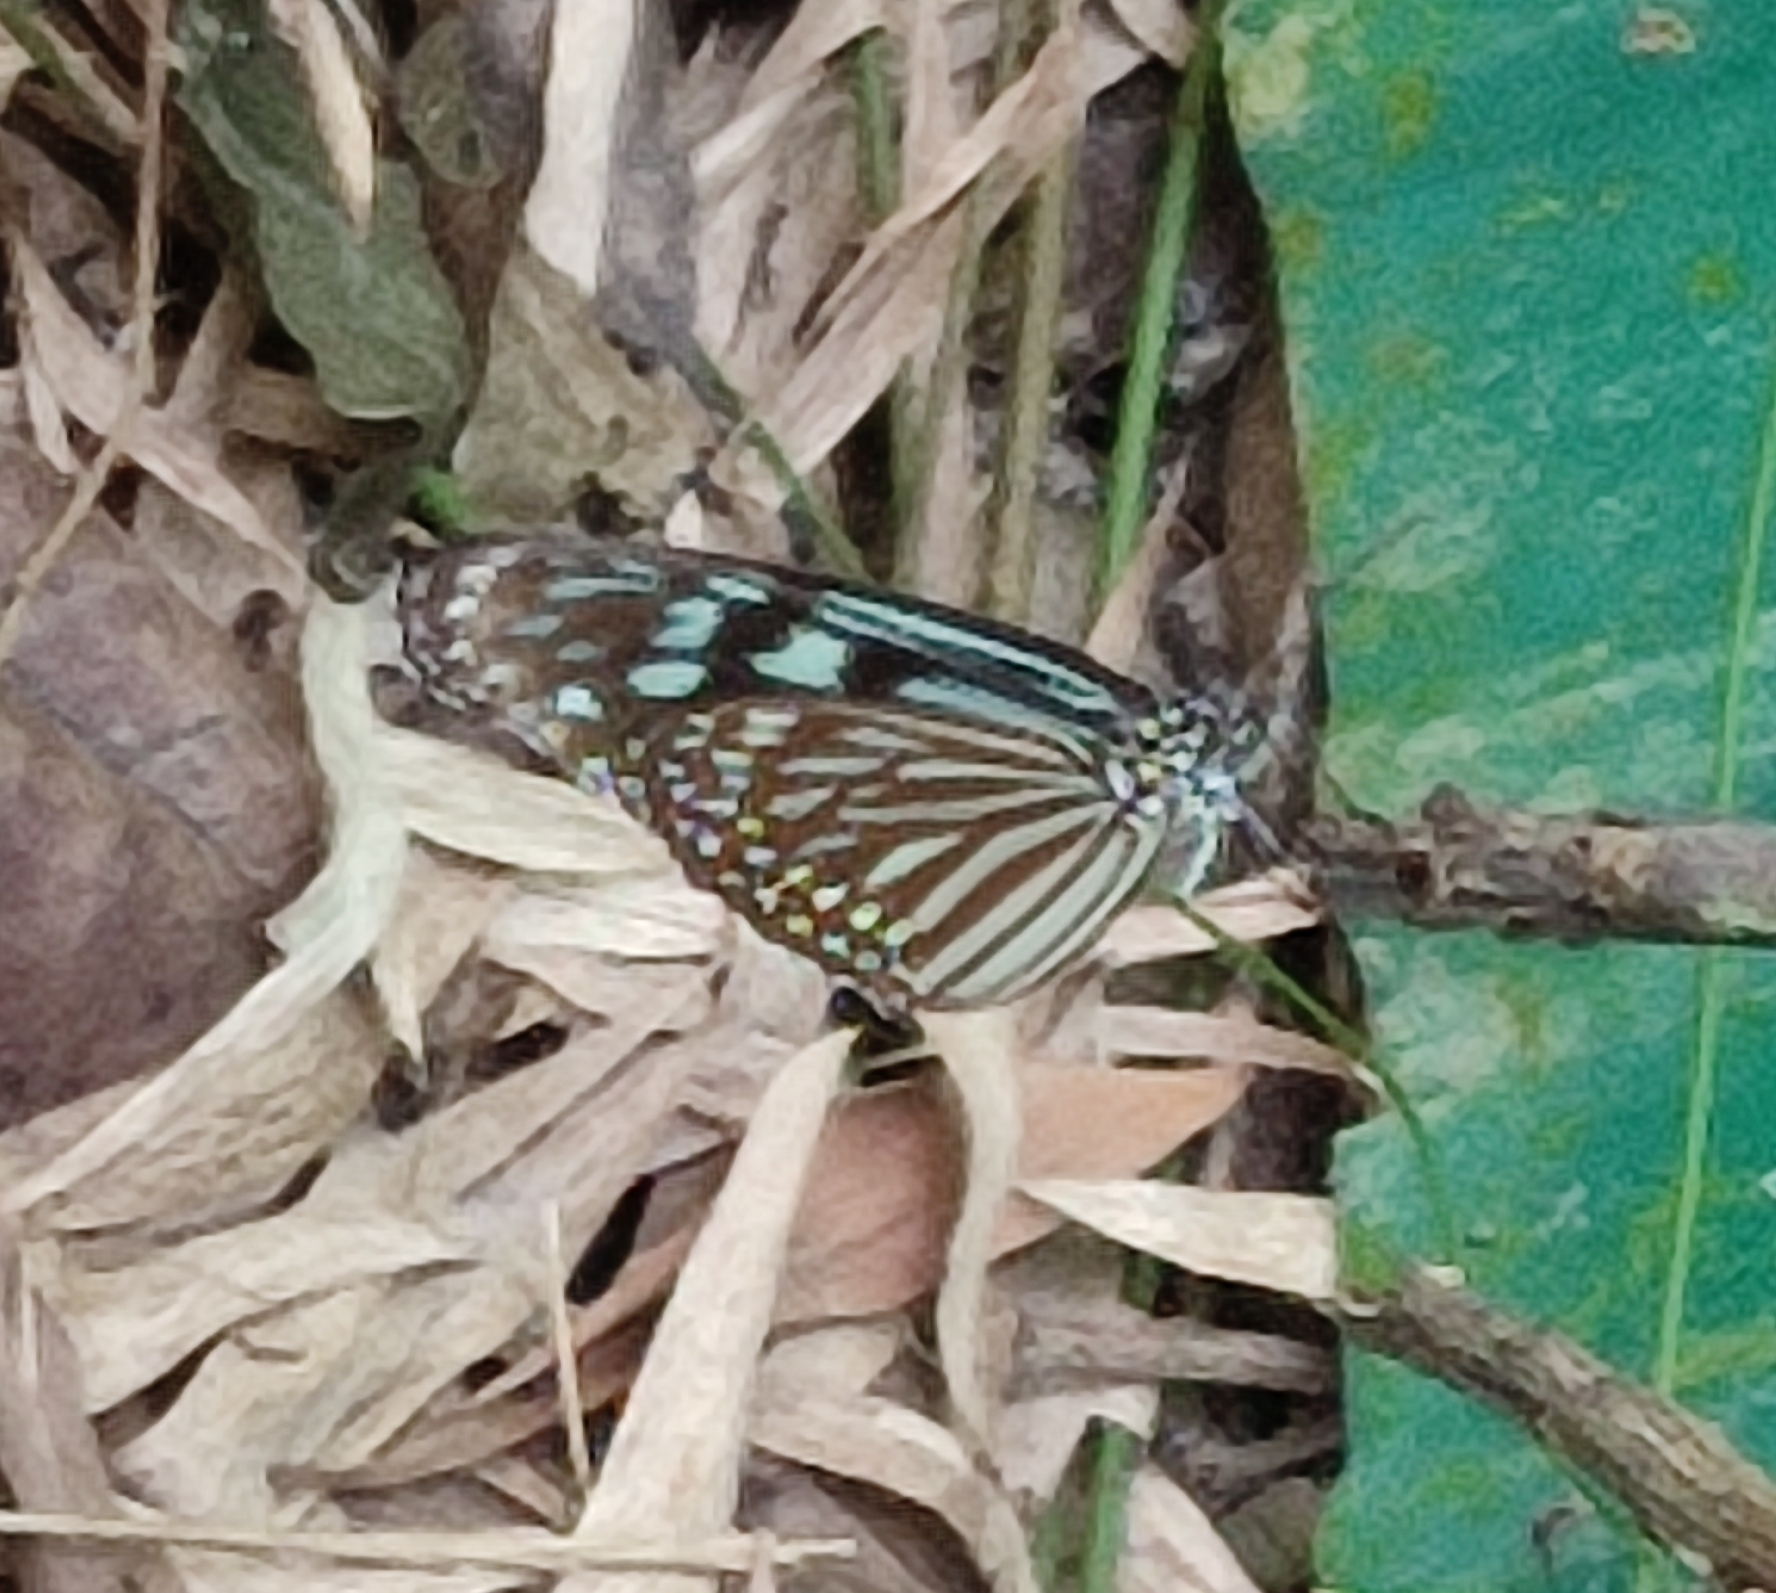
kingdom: Animalia
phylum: Arthropoda
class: Insecta
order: Lepidoptera
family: Nymphalidae
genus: Ideopsis
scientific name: Ideopsis similis
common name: Ceylon blue glassy tiger
